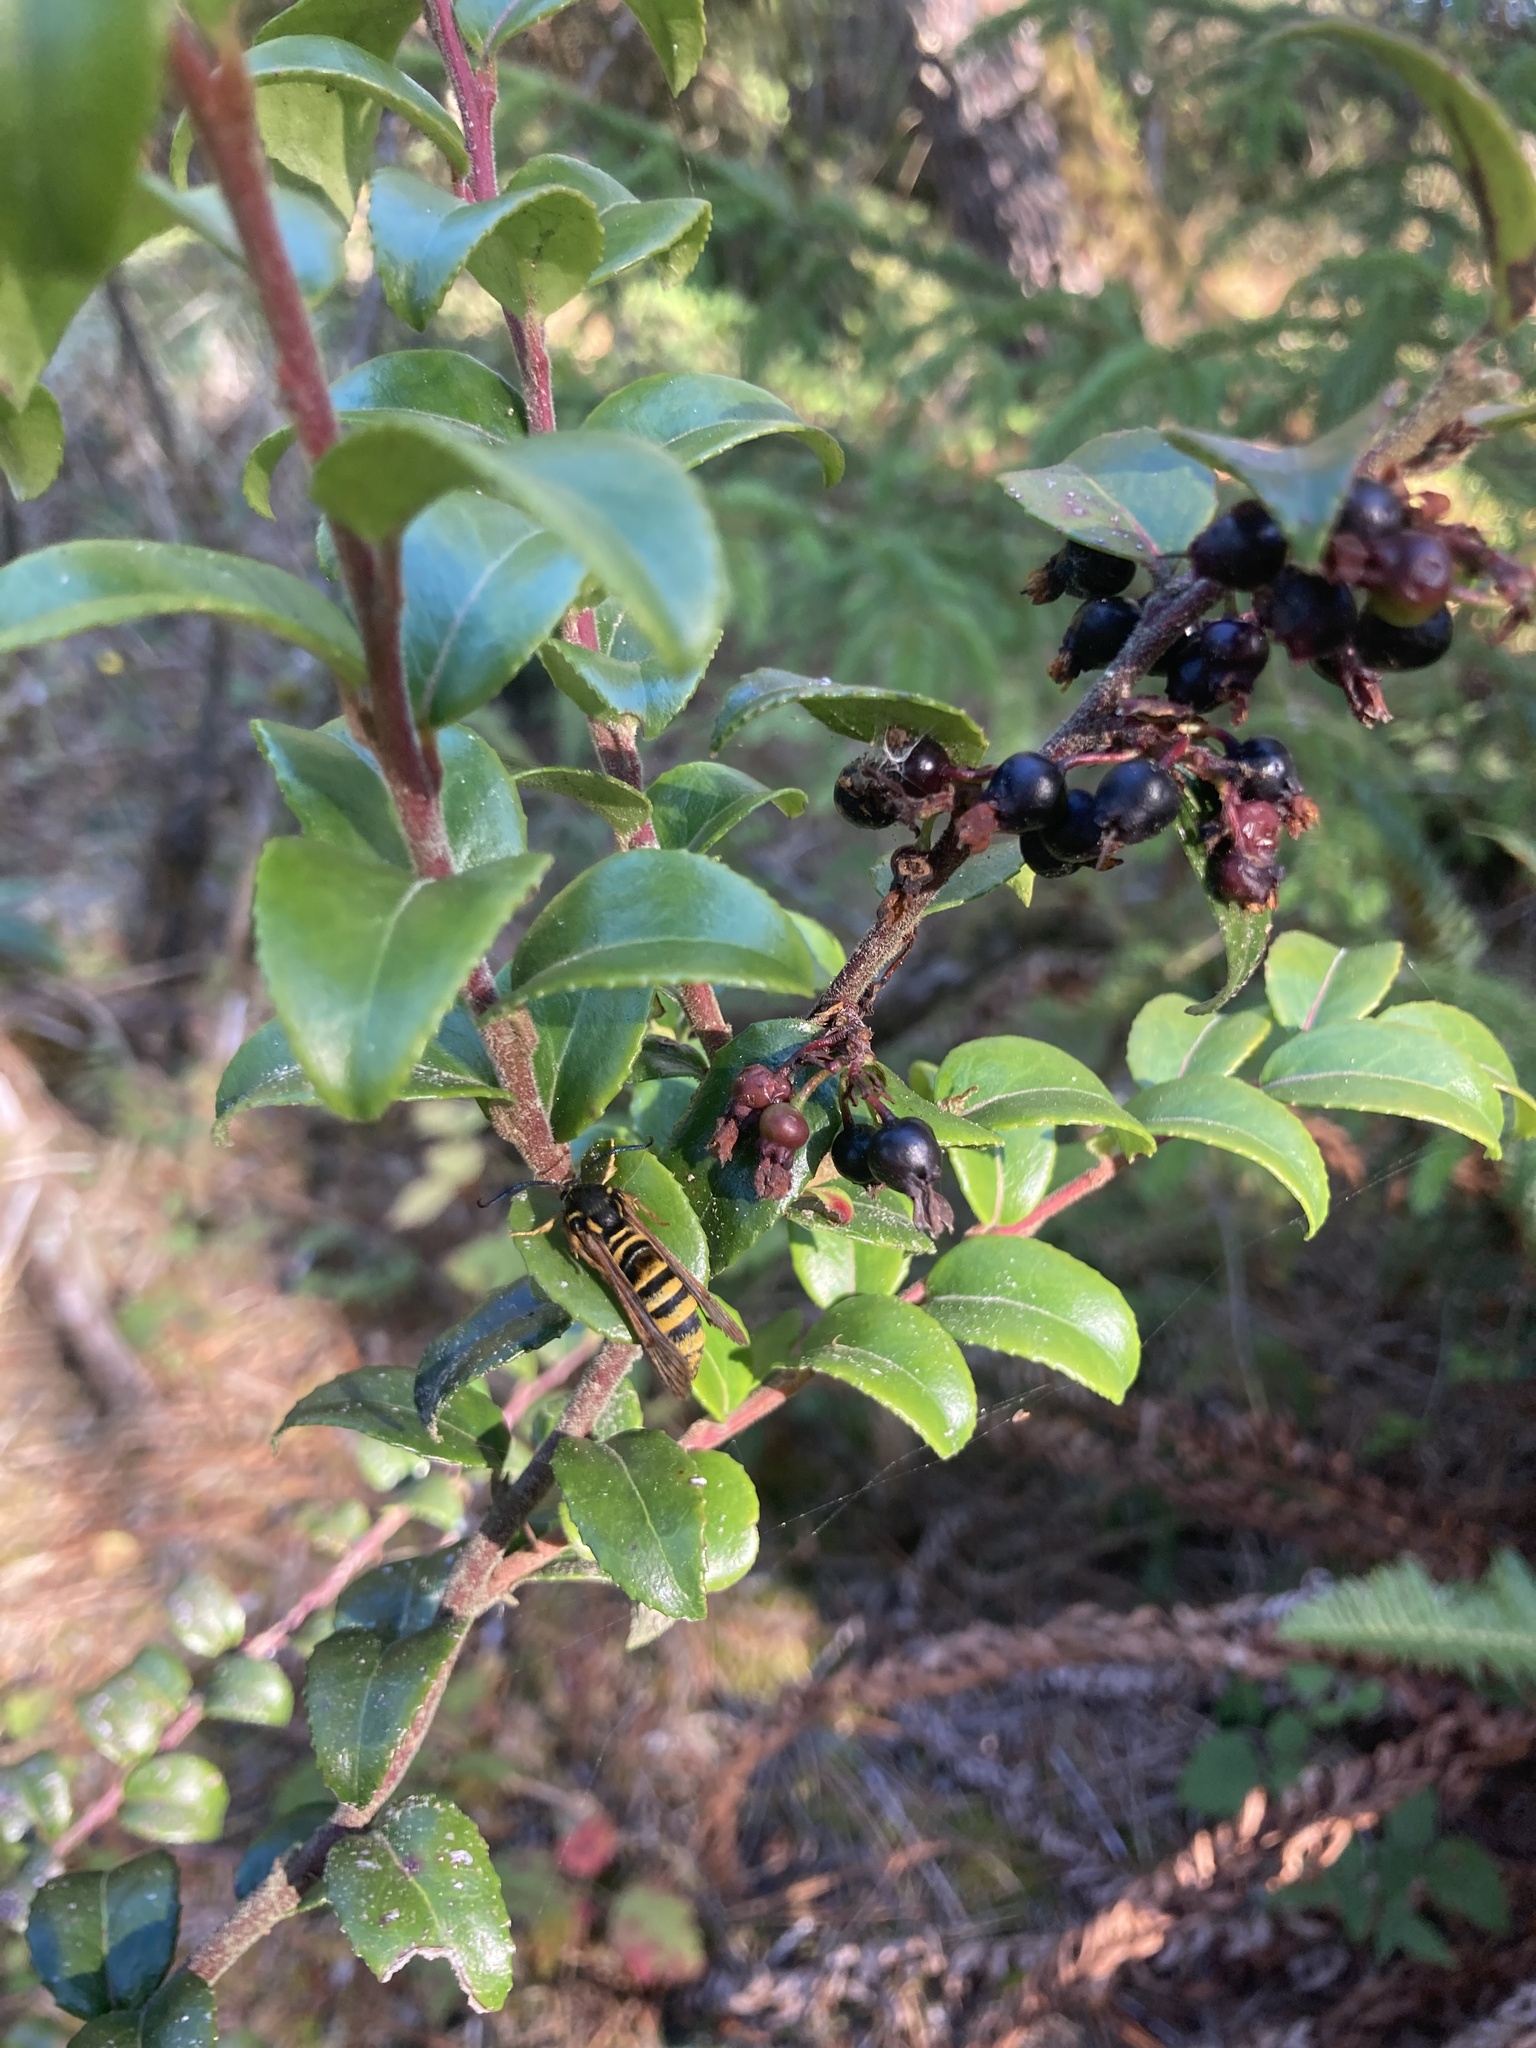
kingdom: Animalia
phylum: Arthropoda
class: Insecta
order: Lepidoptera
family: Sesiidae
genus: Pennisetia
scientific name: Pennisetia marginatum
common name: Raspberry crown borer
